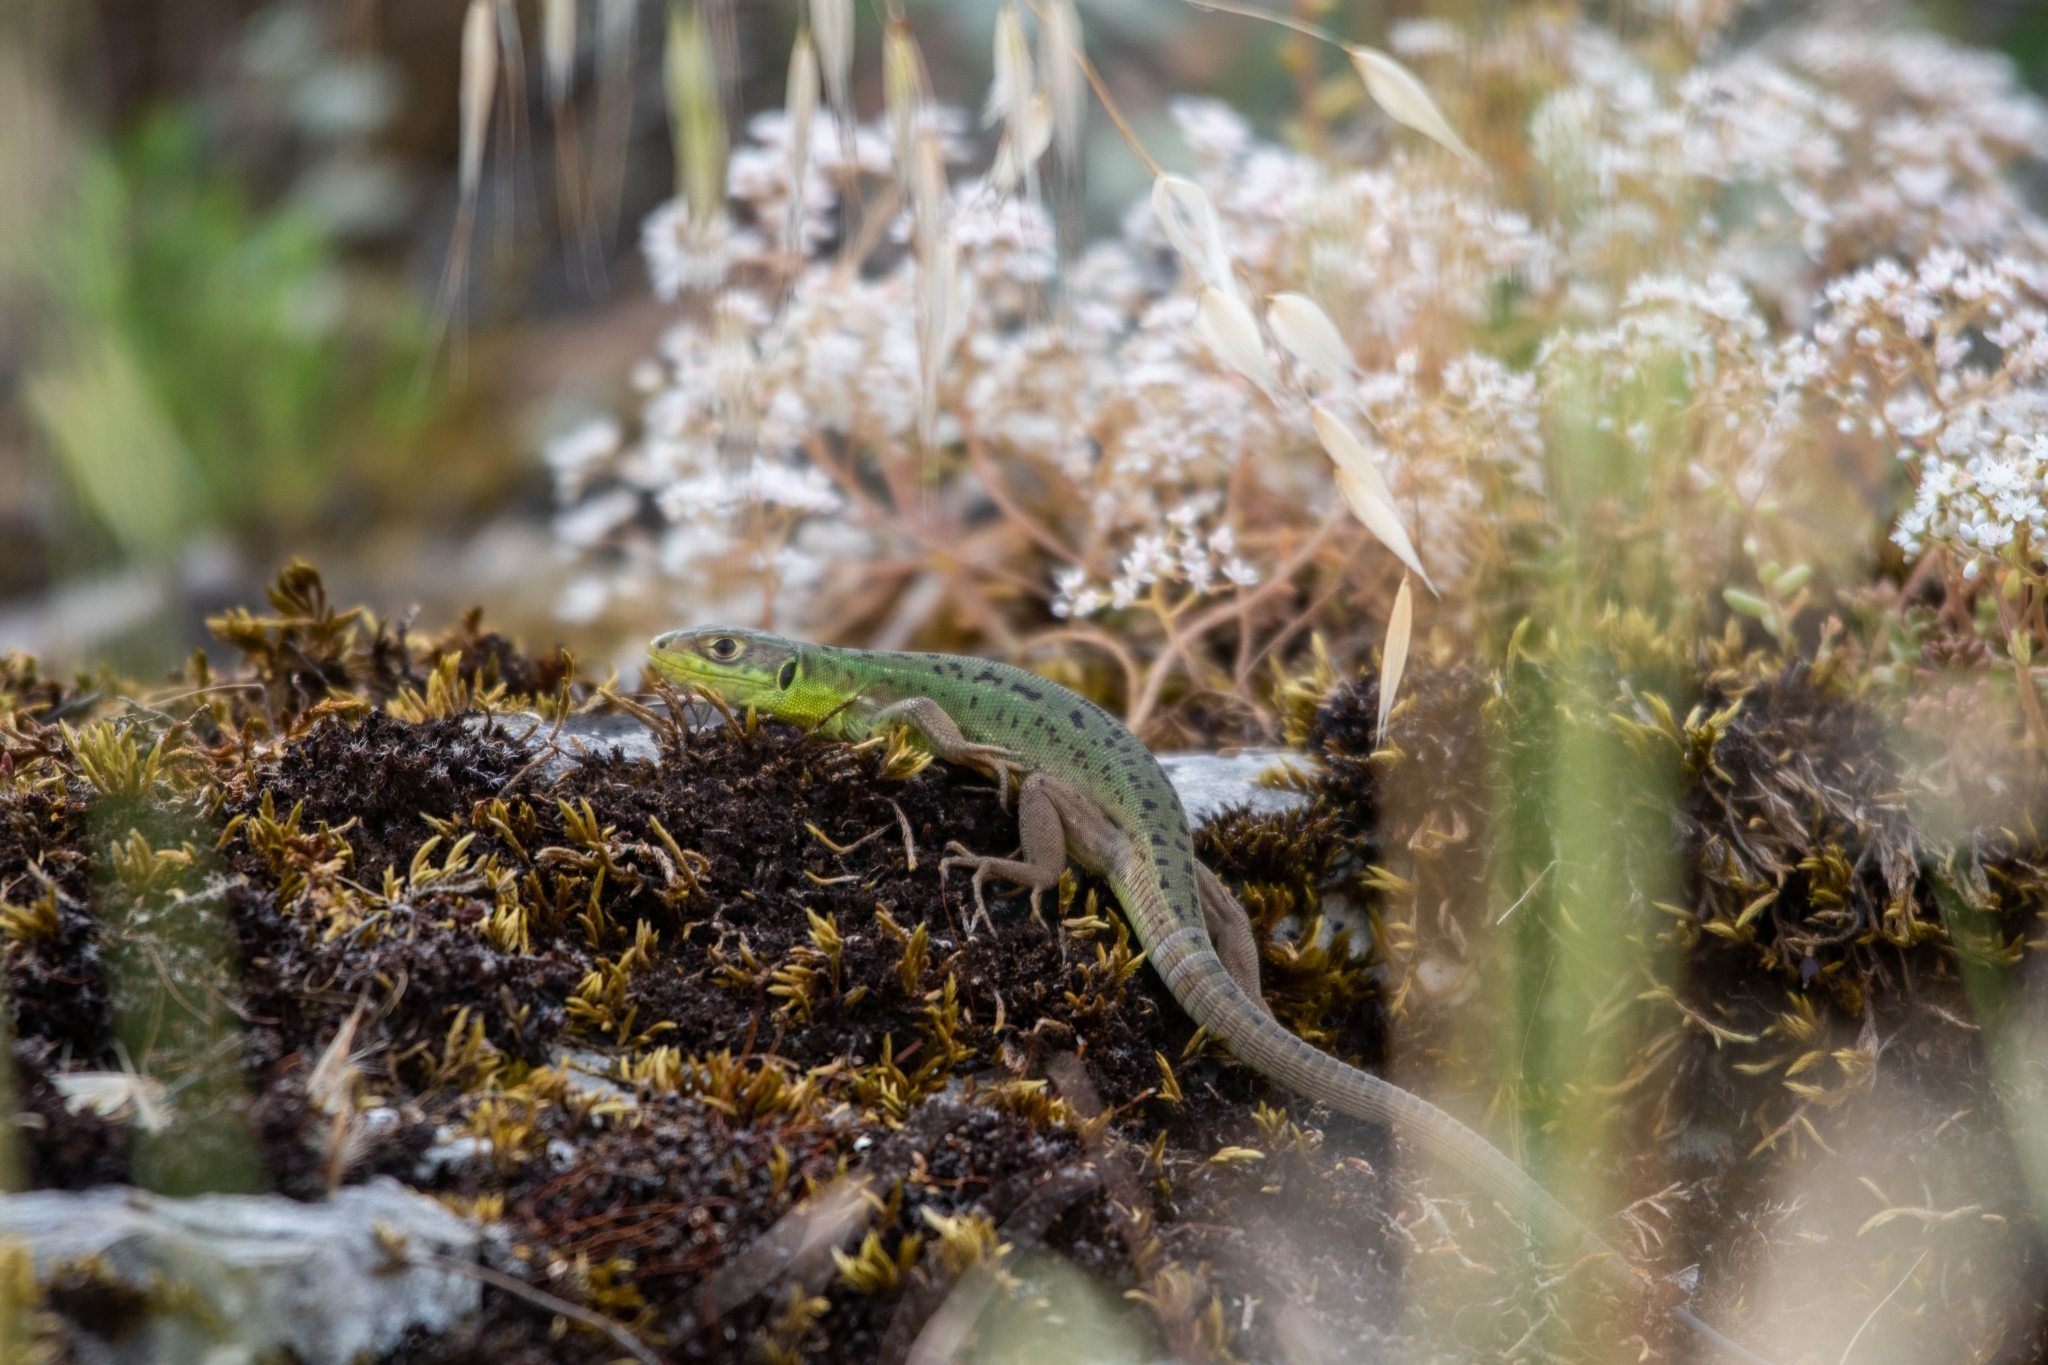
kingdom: Animalia
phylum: Chordata
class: Squamata
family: Lacertidae
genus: Lacerta
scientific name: Lacerta bilineata
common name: Western green lizard
